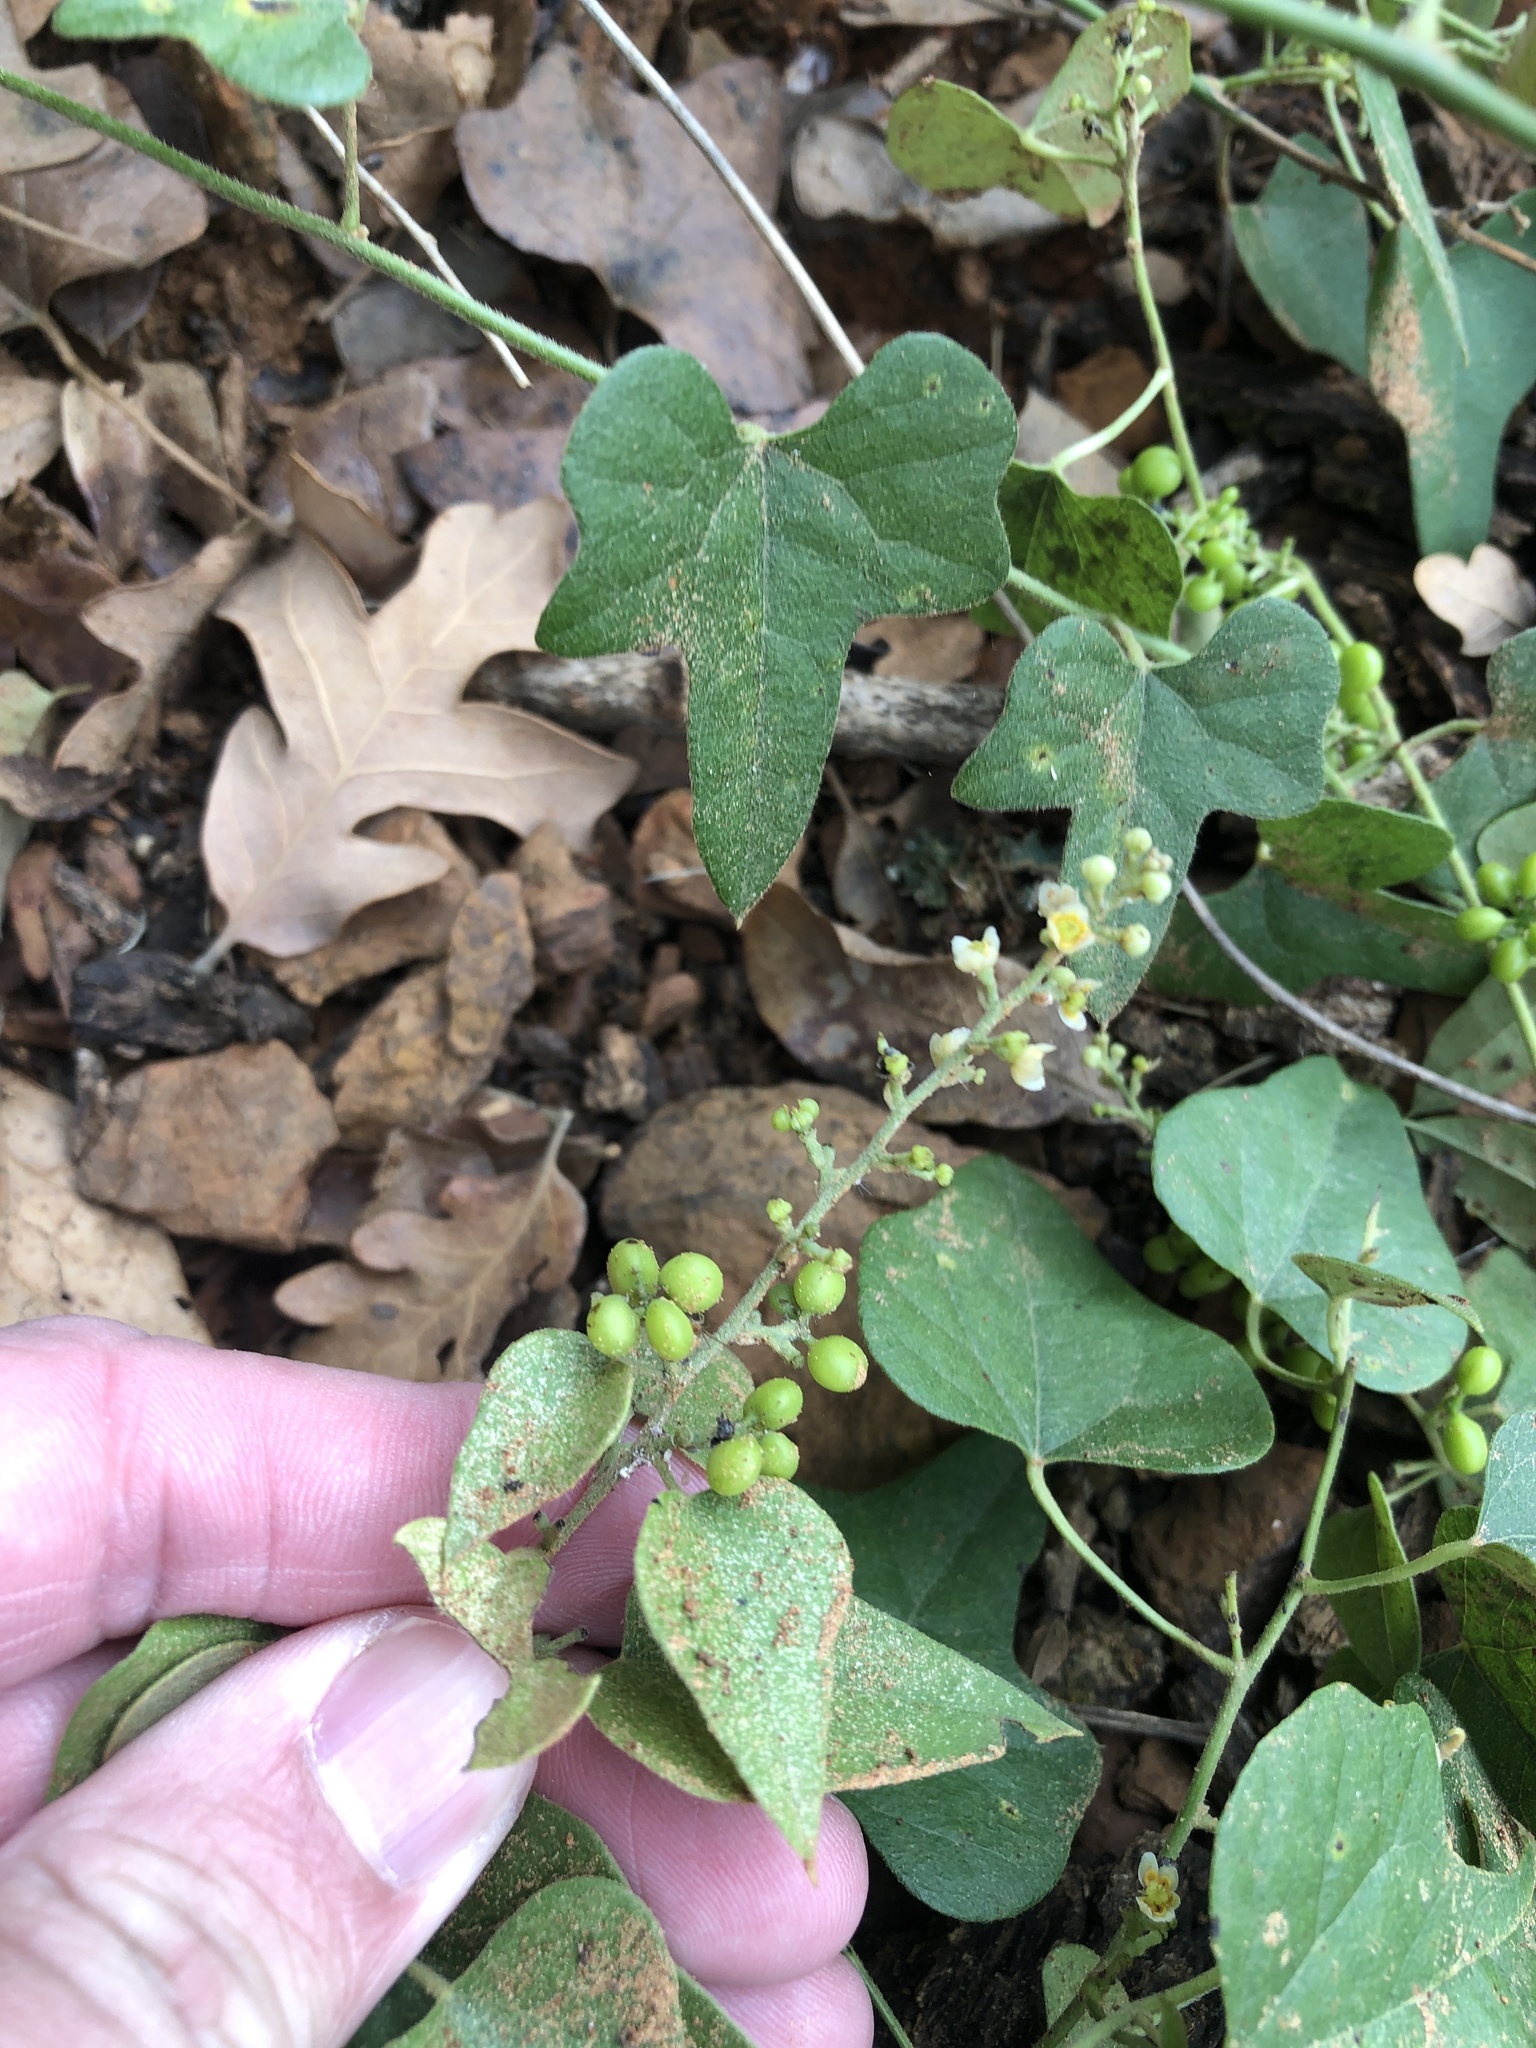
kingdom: Plantae
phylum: Tracheophyta
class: Magnoliopsida
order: Ranunculales
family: Menispermaceae
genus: Cocculus
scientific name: Cocculus carolinus
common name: Carolina moonseed
